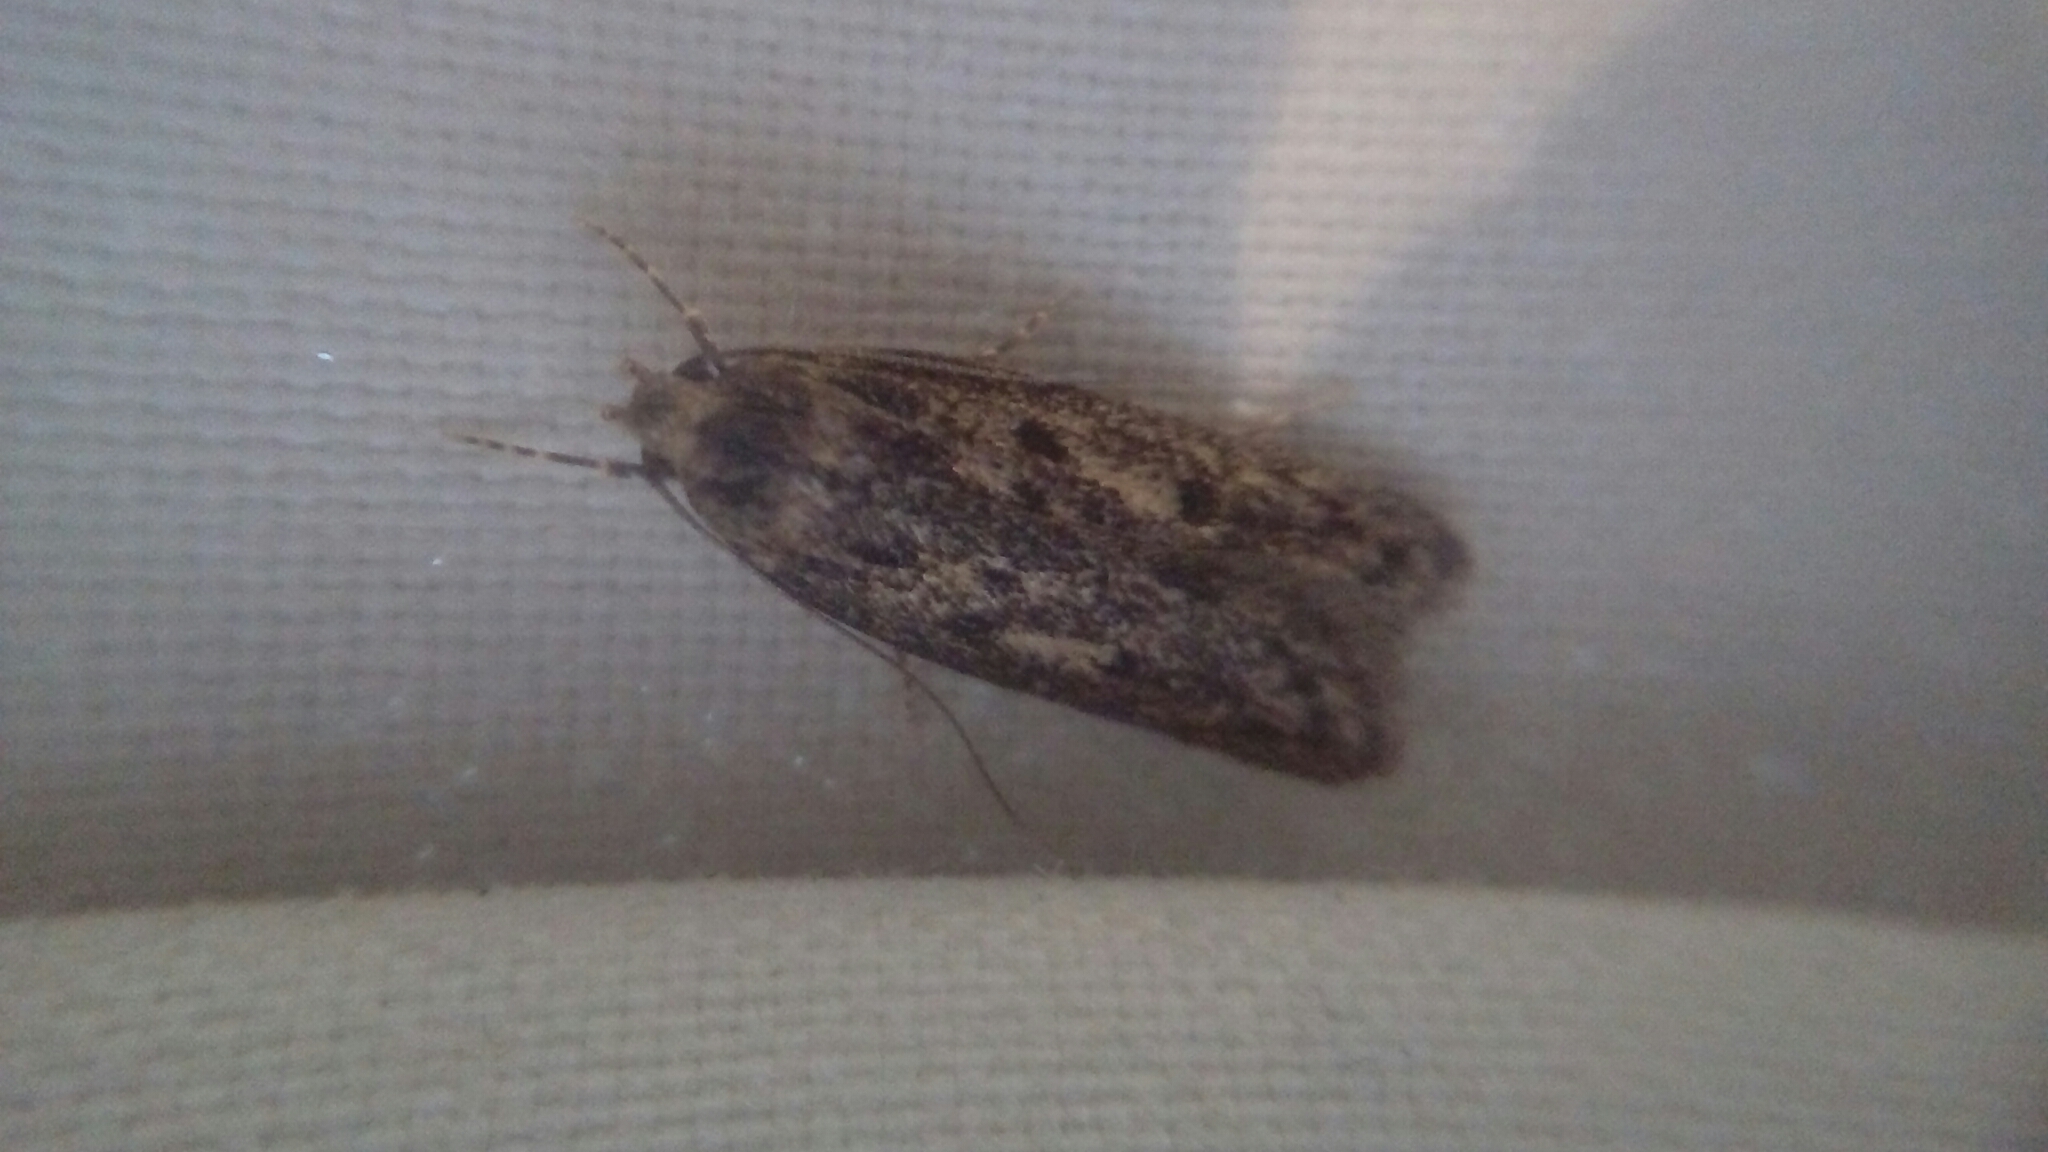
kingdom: Animalia
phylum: Arthropoda
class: Insecta
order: Lepidoptera
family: Oecophoridae
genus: Hofmannophila
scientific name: Hofmannophila pseudospretella
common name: Brown house moth
